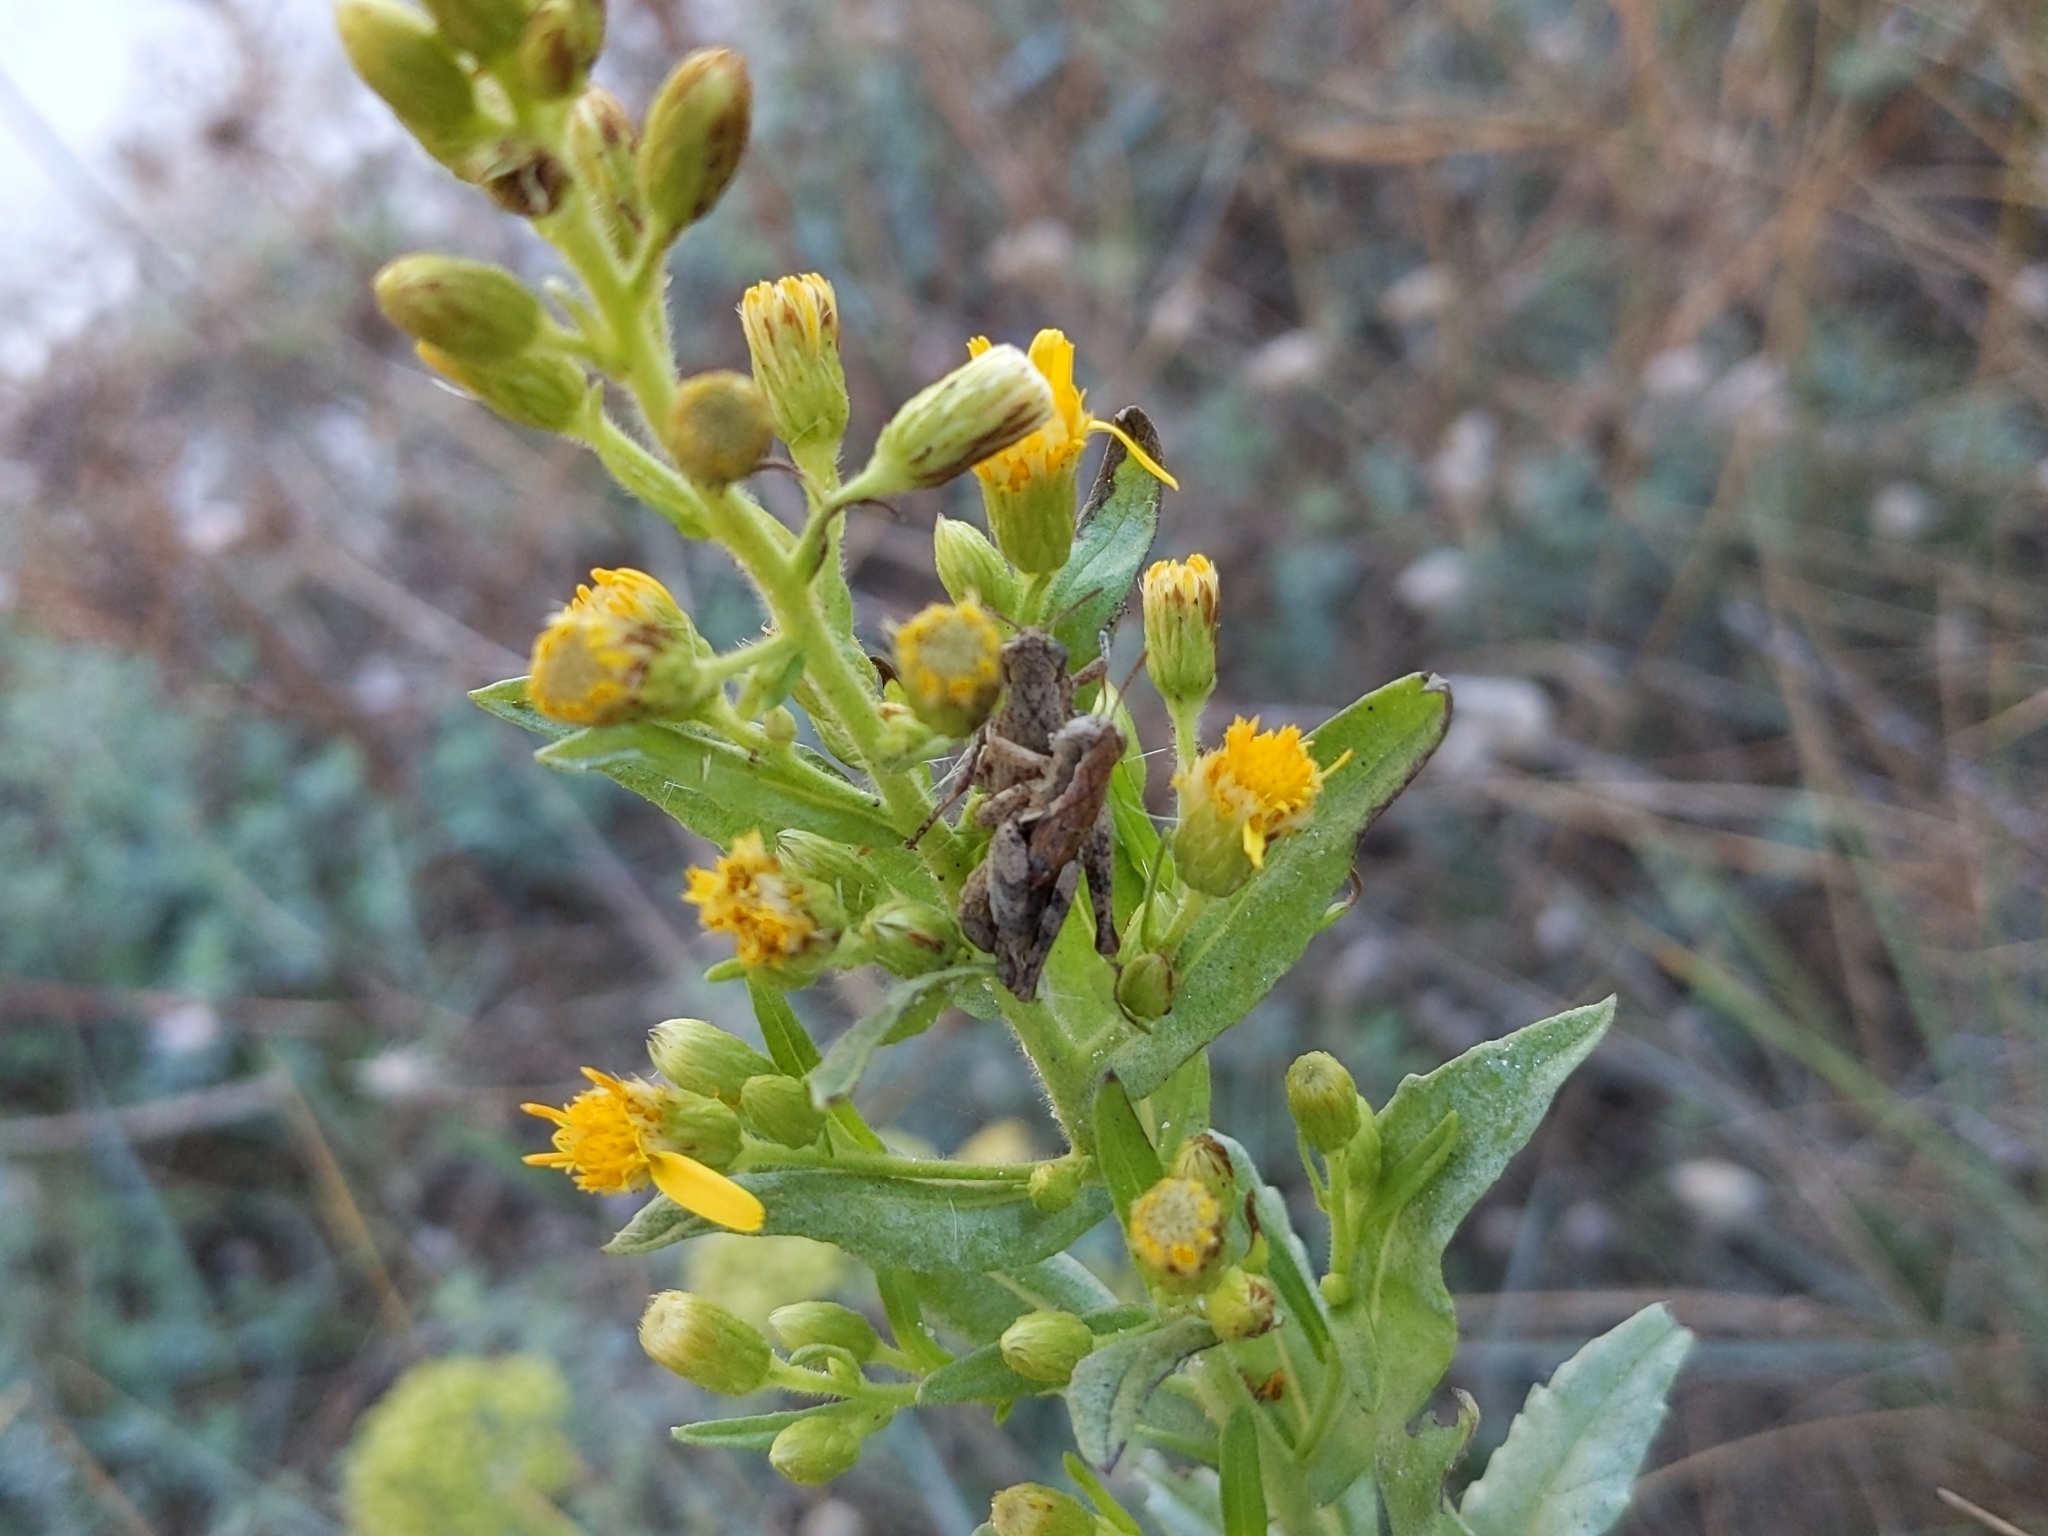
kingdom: Animalia
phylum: Arthropoda
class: Insecta
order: Orthoptera
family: Acrididae
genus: Pezotettix
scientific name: Pezotettix giornae
